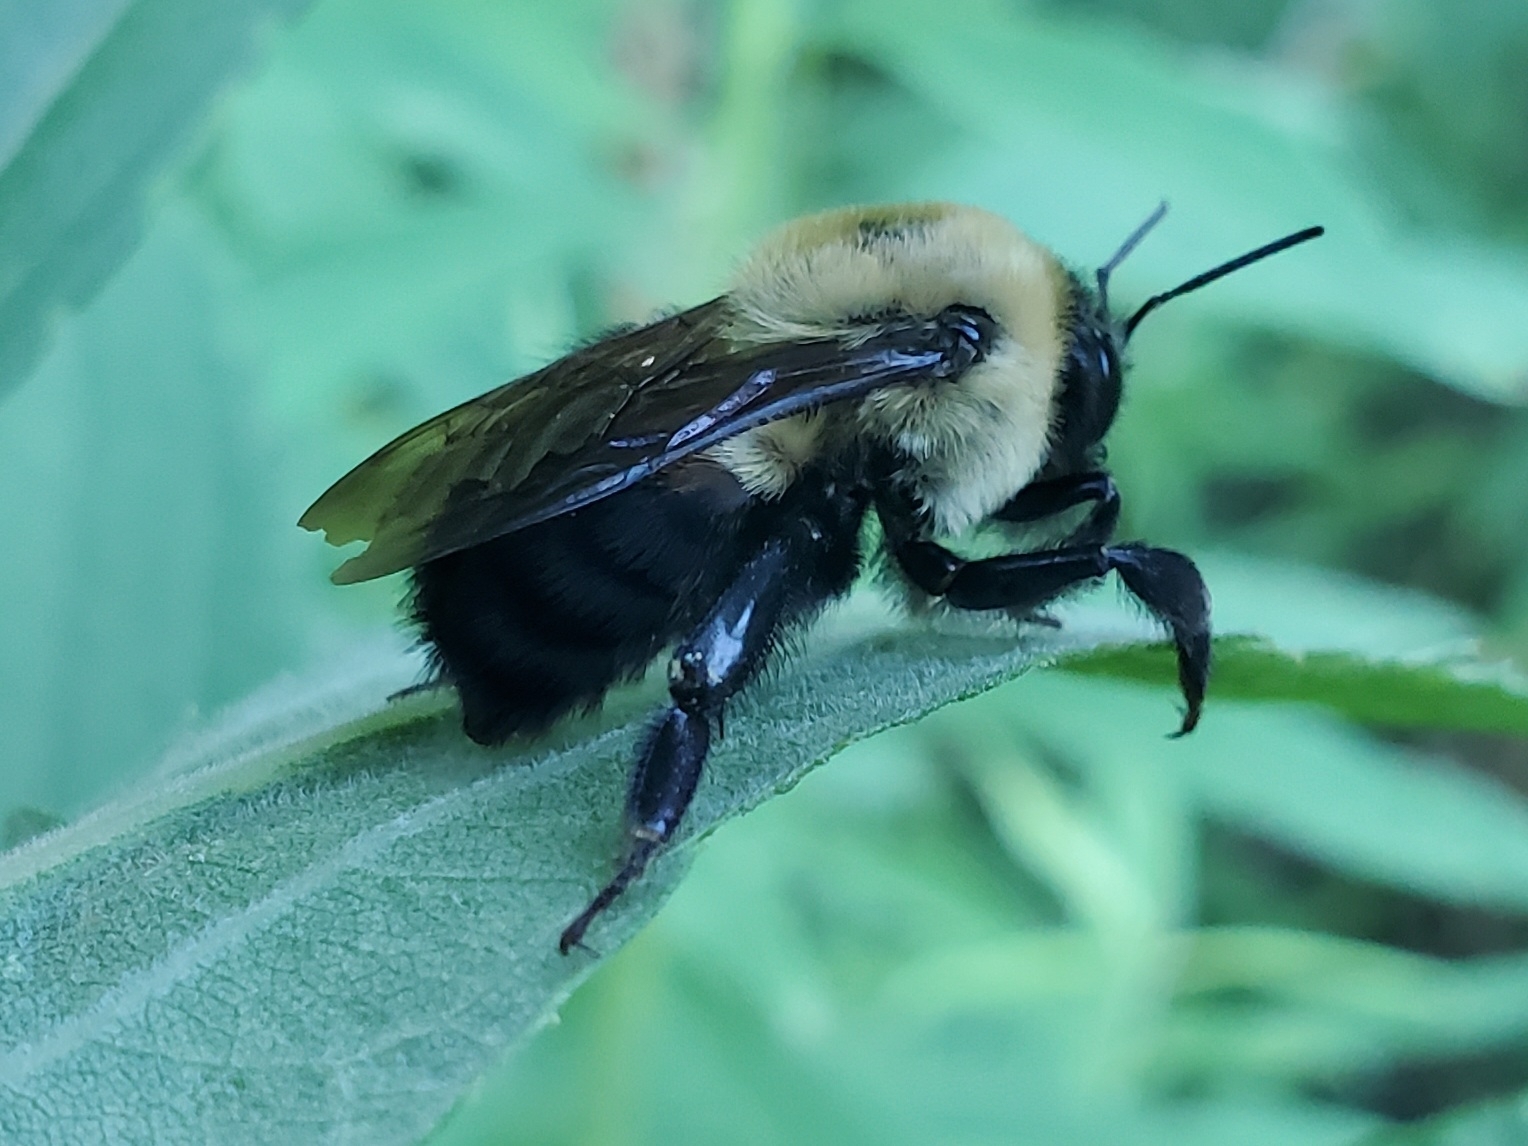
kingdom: Animalia
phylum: Arthropoda
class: Insecta
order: Hymenoptera
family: Apidae
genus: Bombus
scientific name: Bombus griseocollis
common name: Brown-belted bumble bee
